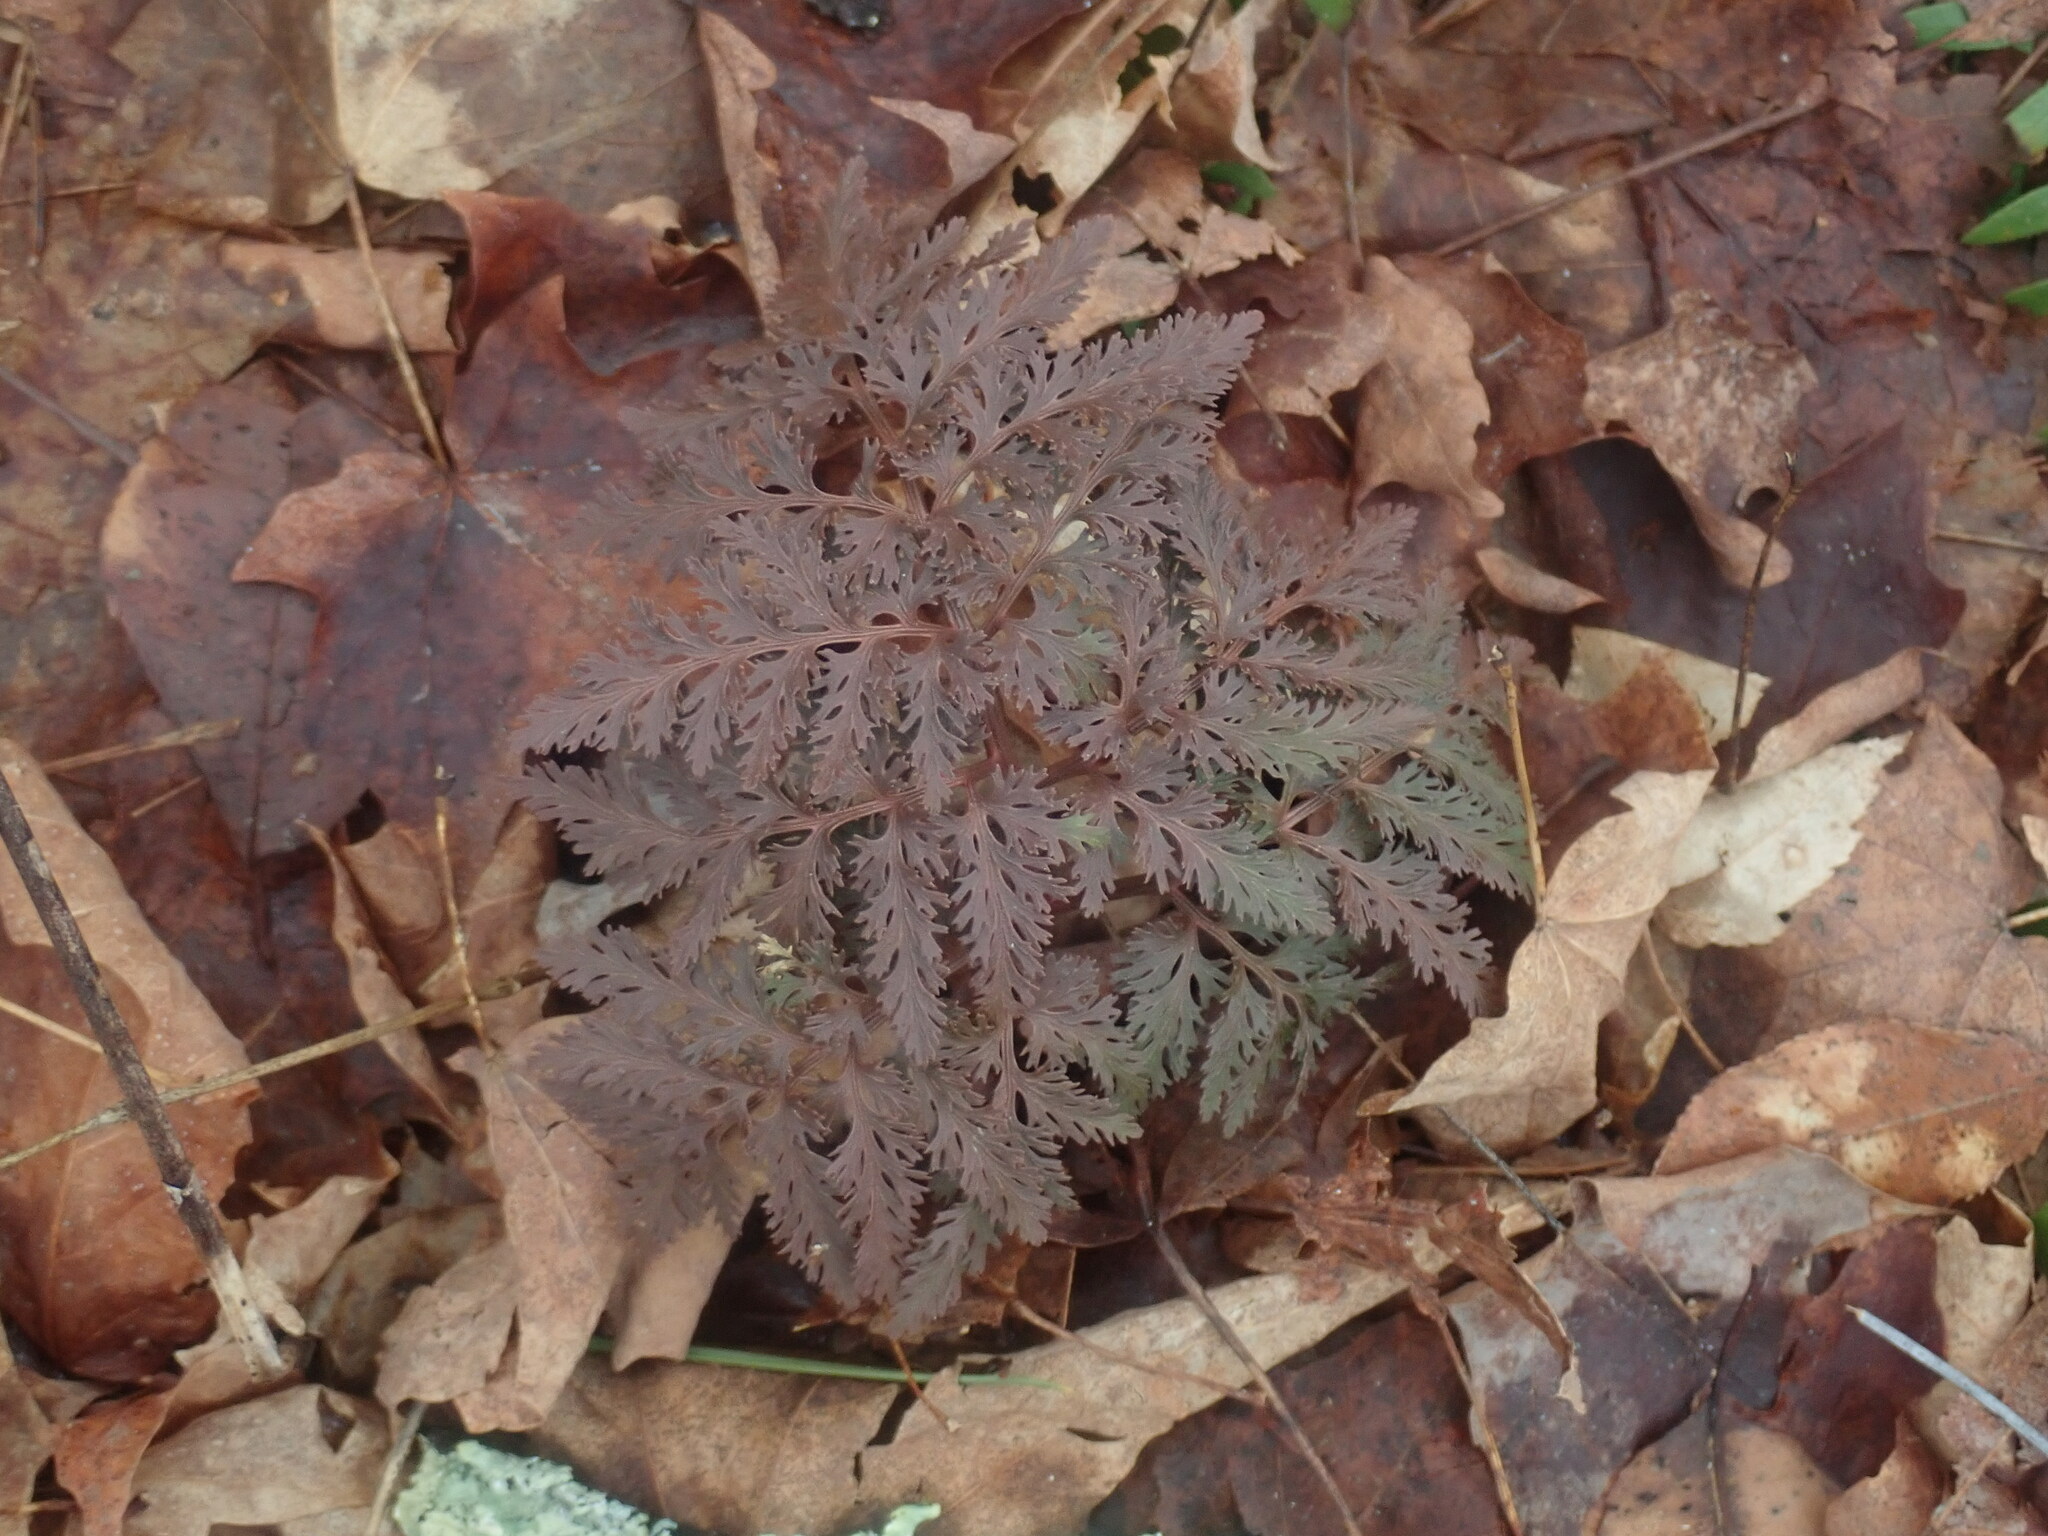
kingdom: Plantae
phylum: Tracheophyta
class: Polypodiopsida
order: Ophioglossales
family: Ophioglossaceae
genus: Sceptridium
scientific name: Sceptridium dissectum
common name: Cut-leaved grapefern
